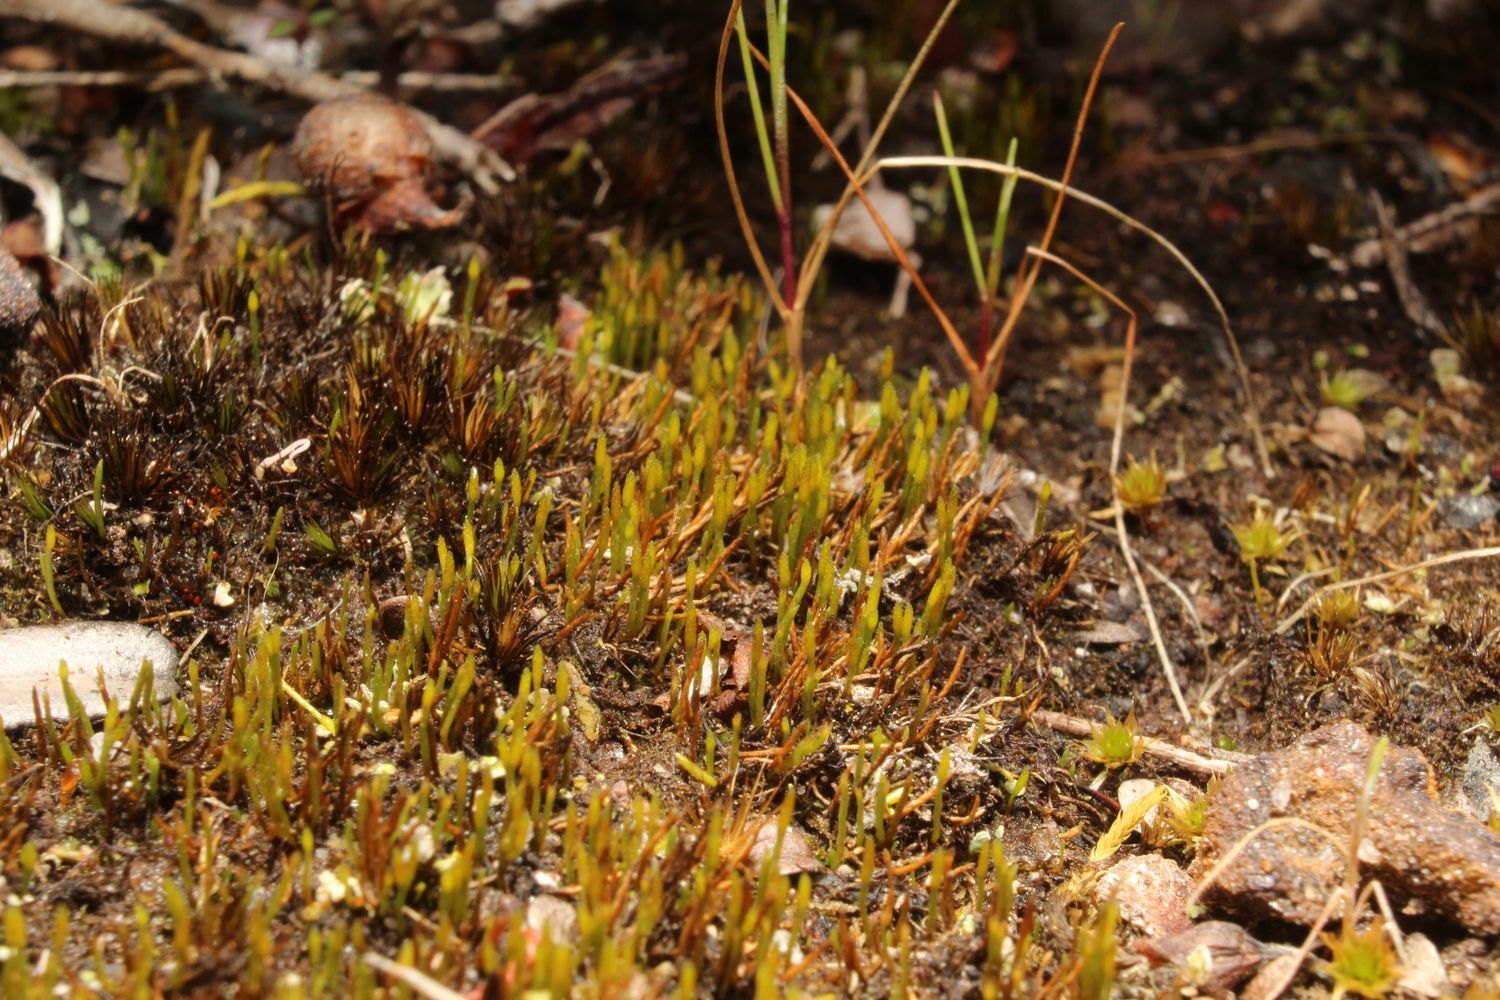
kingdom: Plantae
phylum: Bryophyta
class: Bryopsida
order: Dicranales
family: Dicranellaceae
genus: Eccremidium
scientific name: Eccremidium pulchellum
